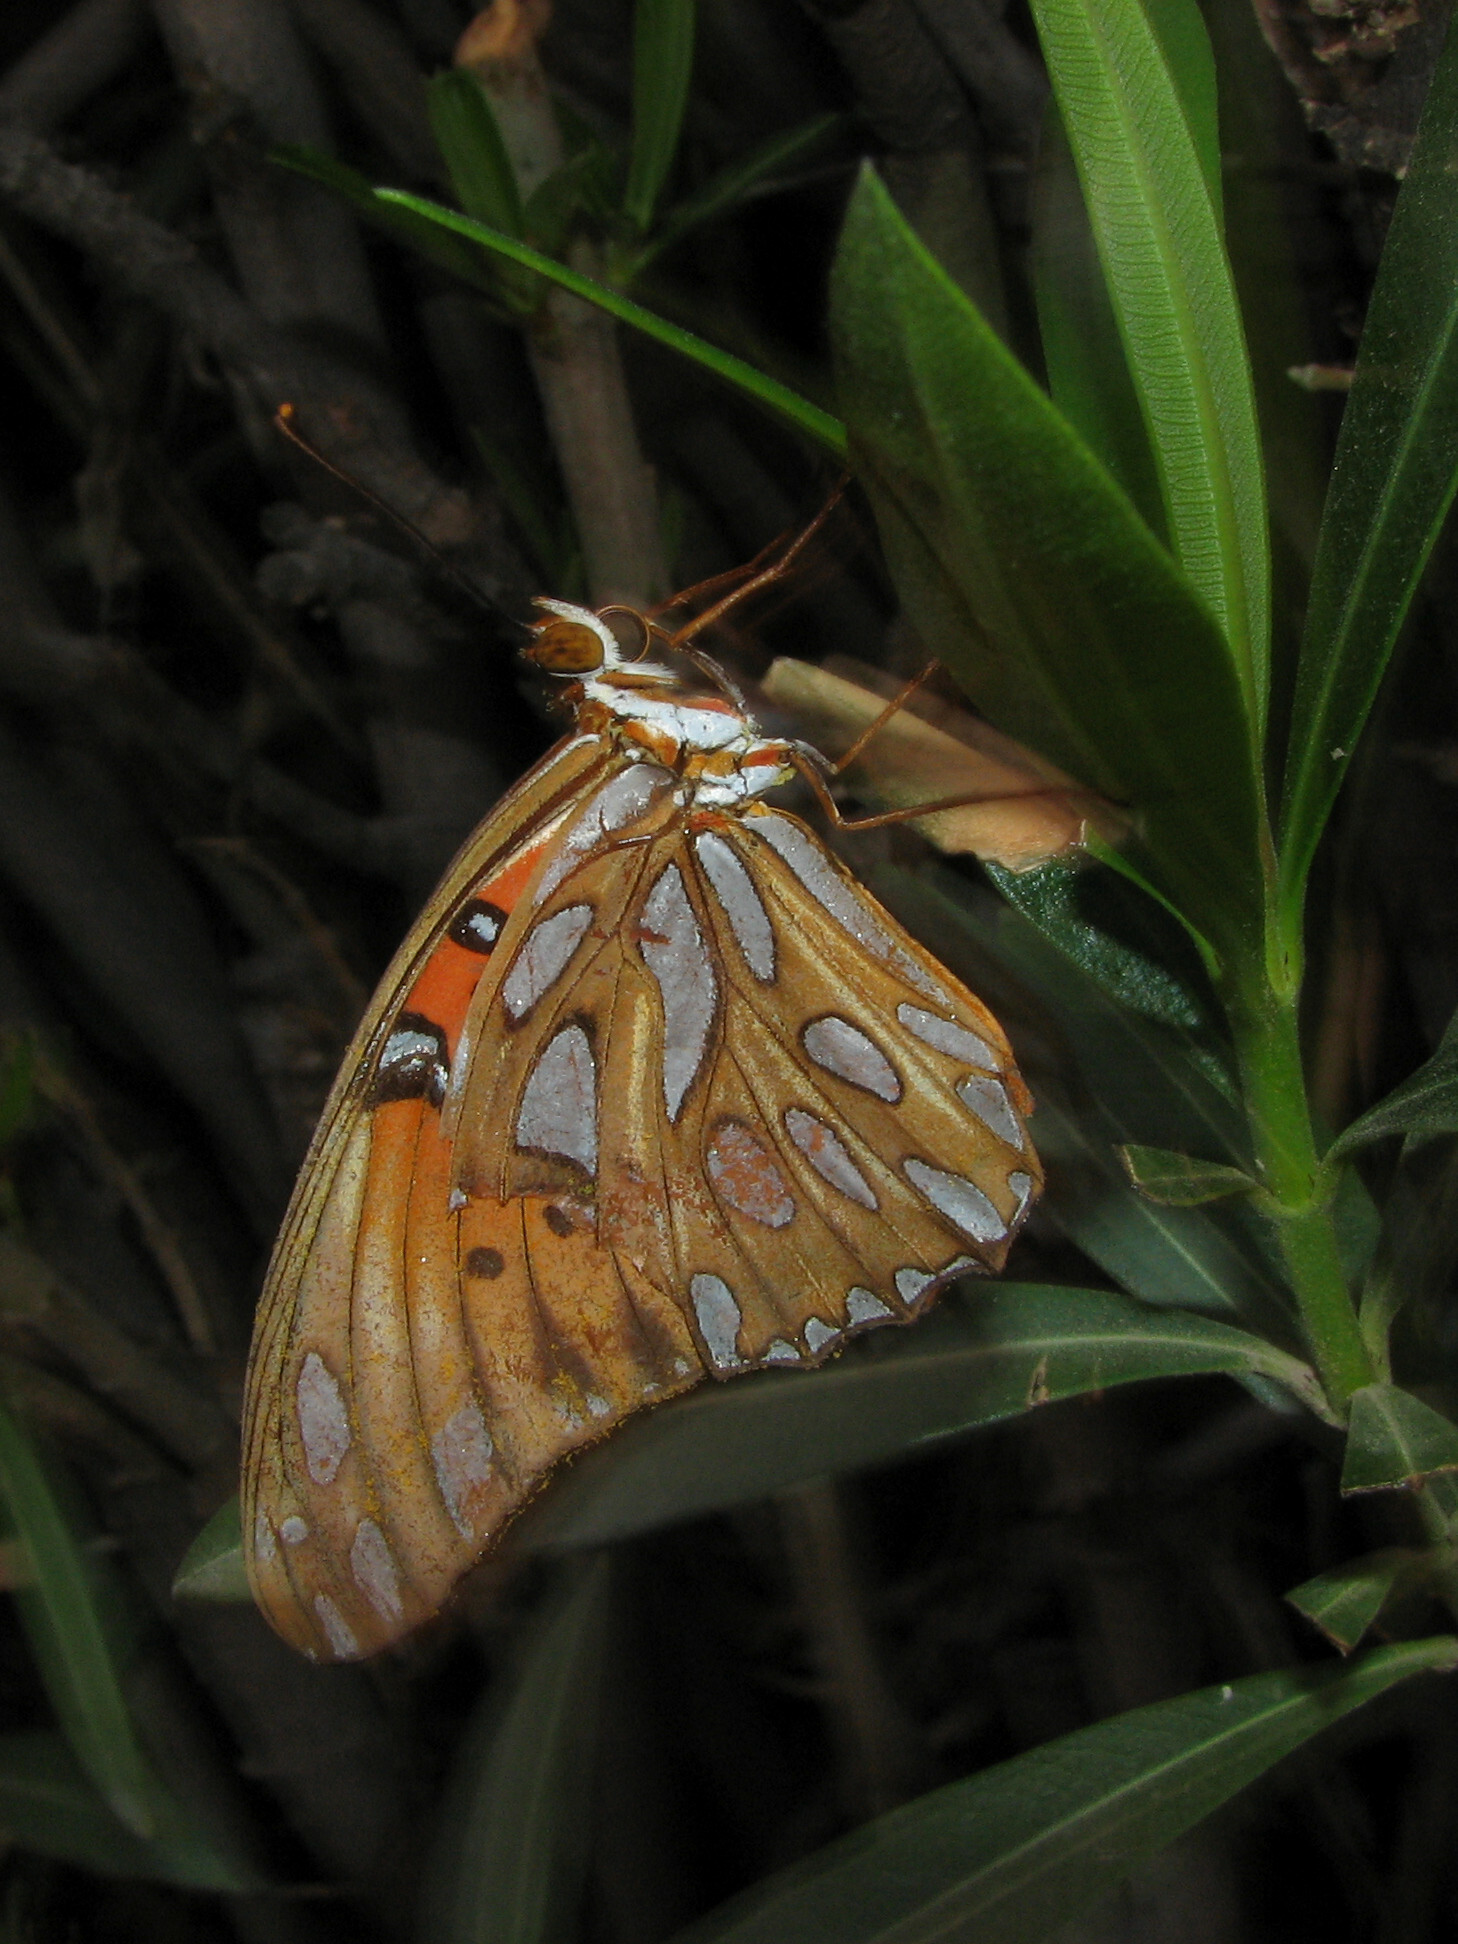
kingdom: Animalia
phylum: Arthropoda
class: Insecta
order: Lepidoptera
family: Nymphalidae
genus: Dione
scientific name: Dione vanillae
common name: Gulf fritillary
